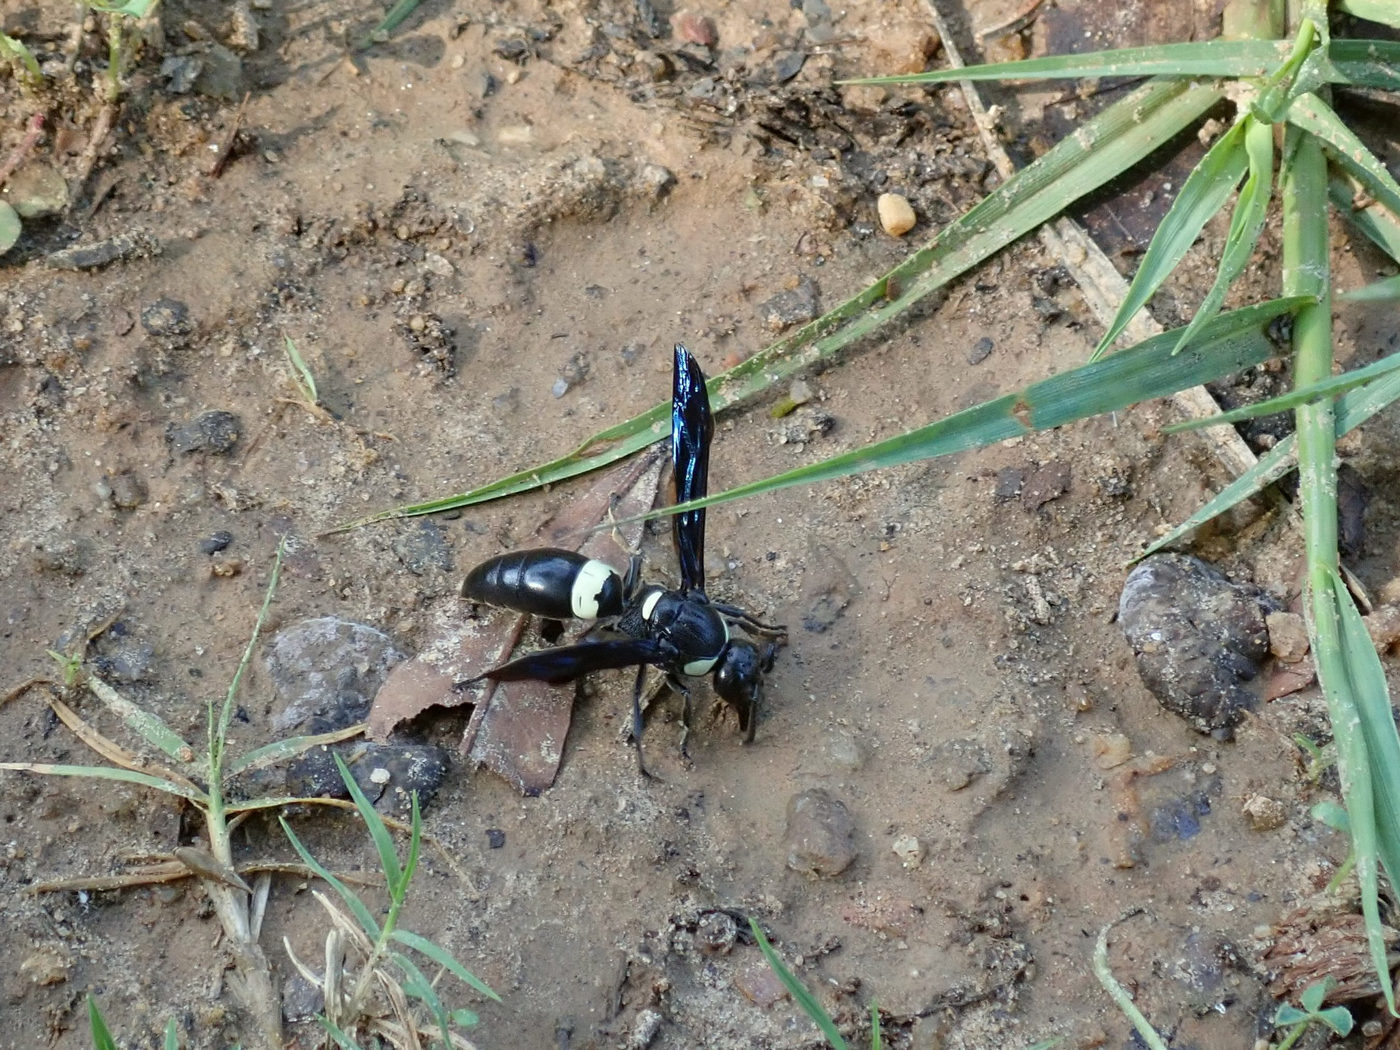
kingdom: Animalia
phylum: Arthropoda
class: Insecta
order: Hymenoptera
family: Eumenidae
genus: Monobia
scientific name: Monobia quadridens
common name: Four-toothed mason wasp
